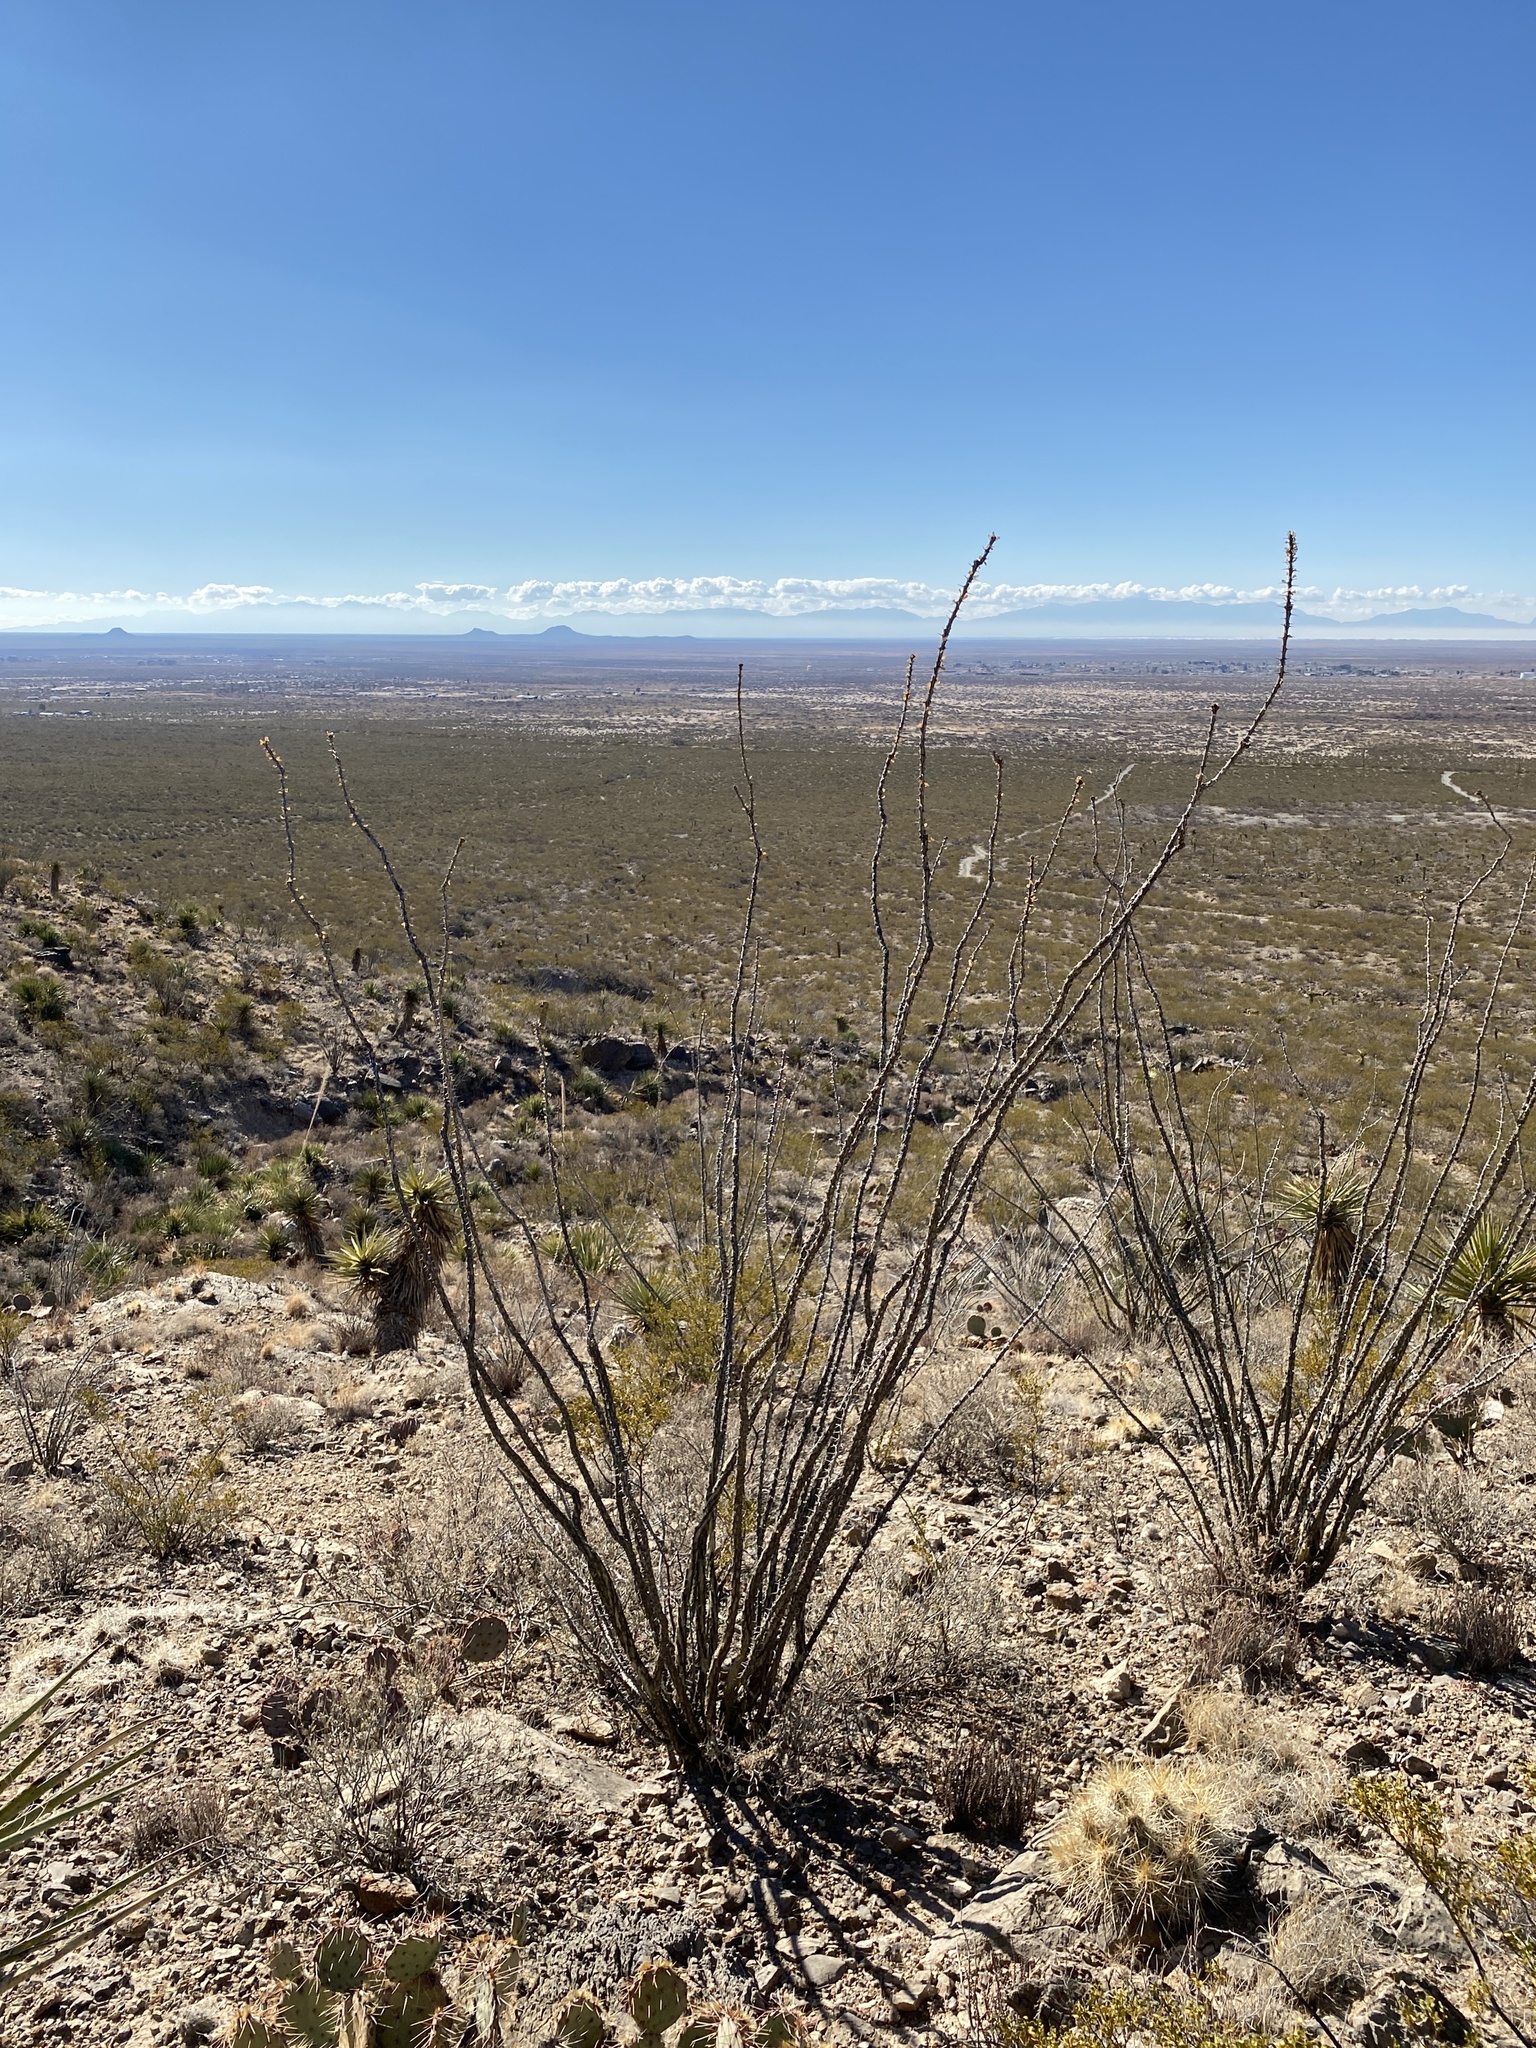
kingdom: Plantae
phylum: Tracheophyta
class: Magnoliopsida
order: Ericales
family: Fouquieriaceae
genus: Fouquieria
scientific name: Fouquieria splendens
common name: Vine-cactus
